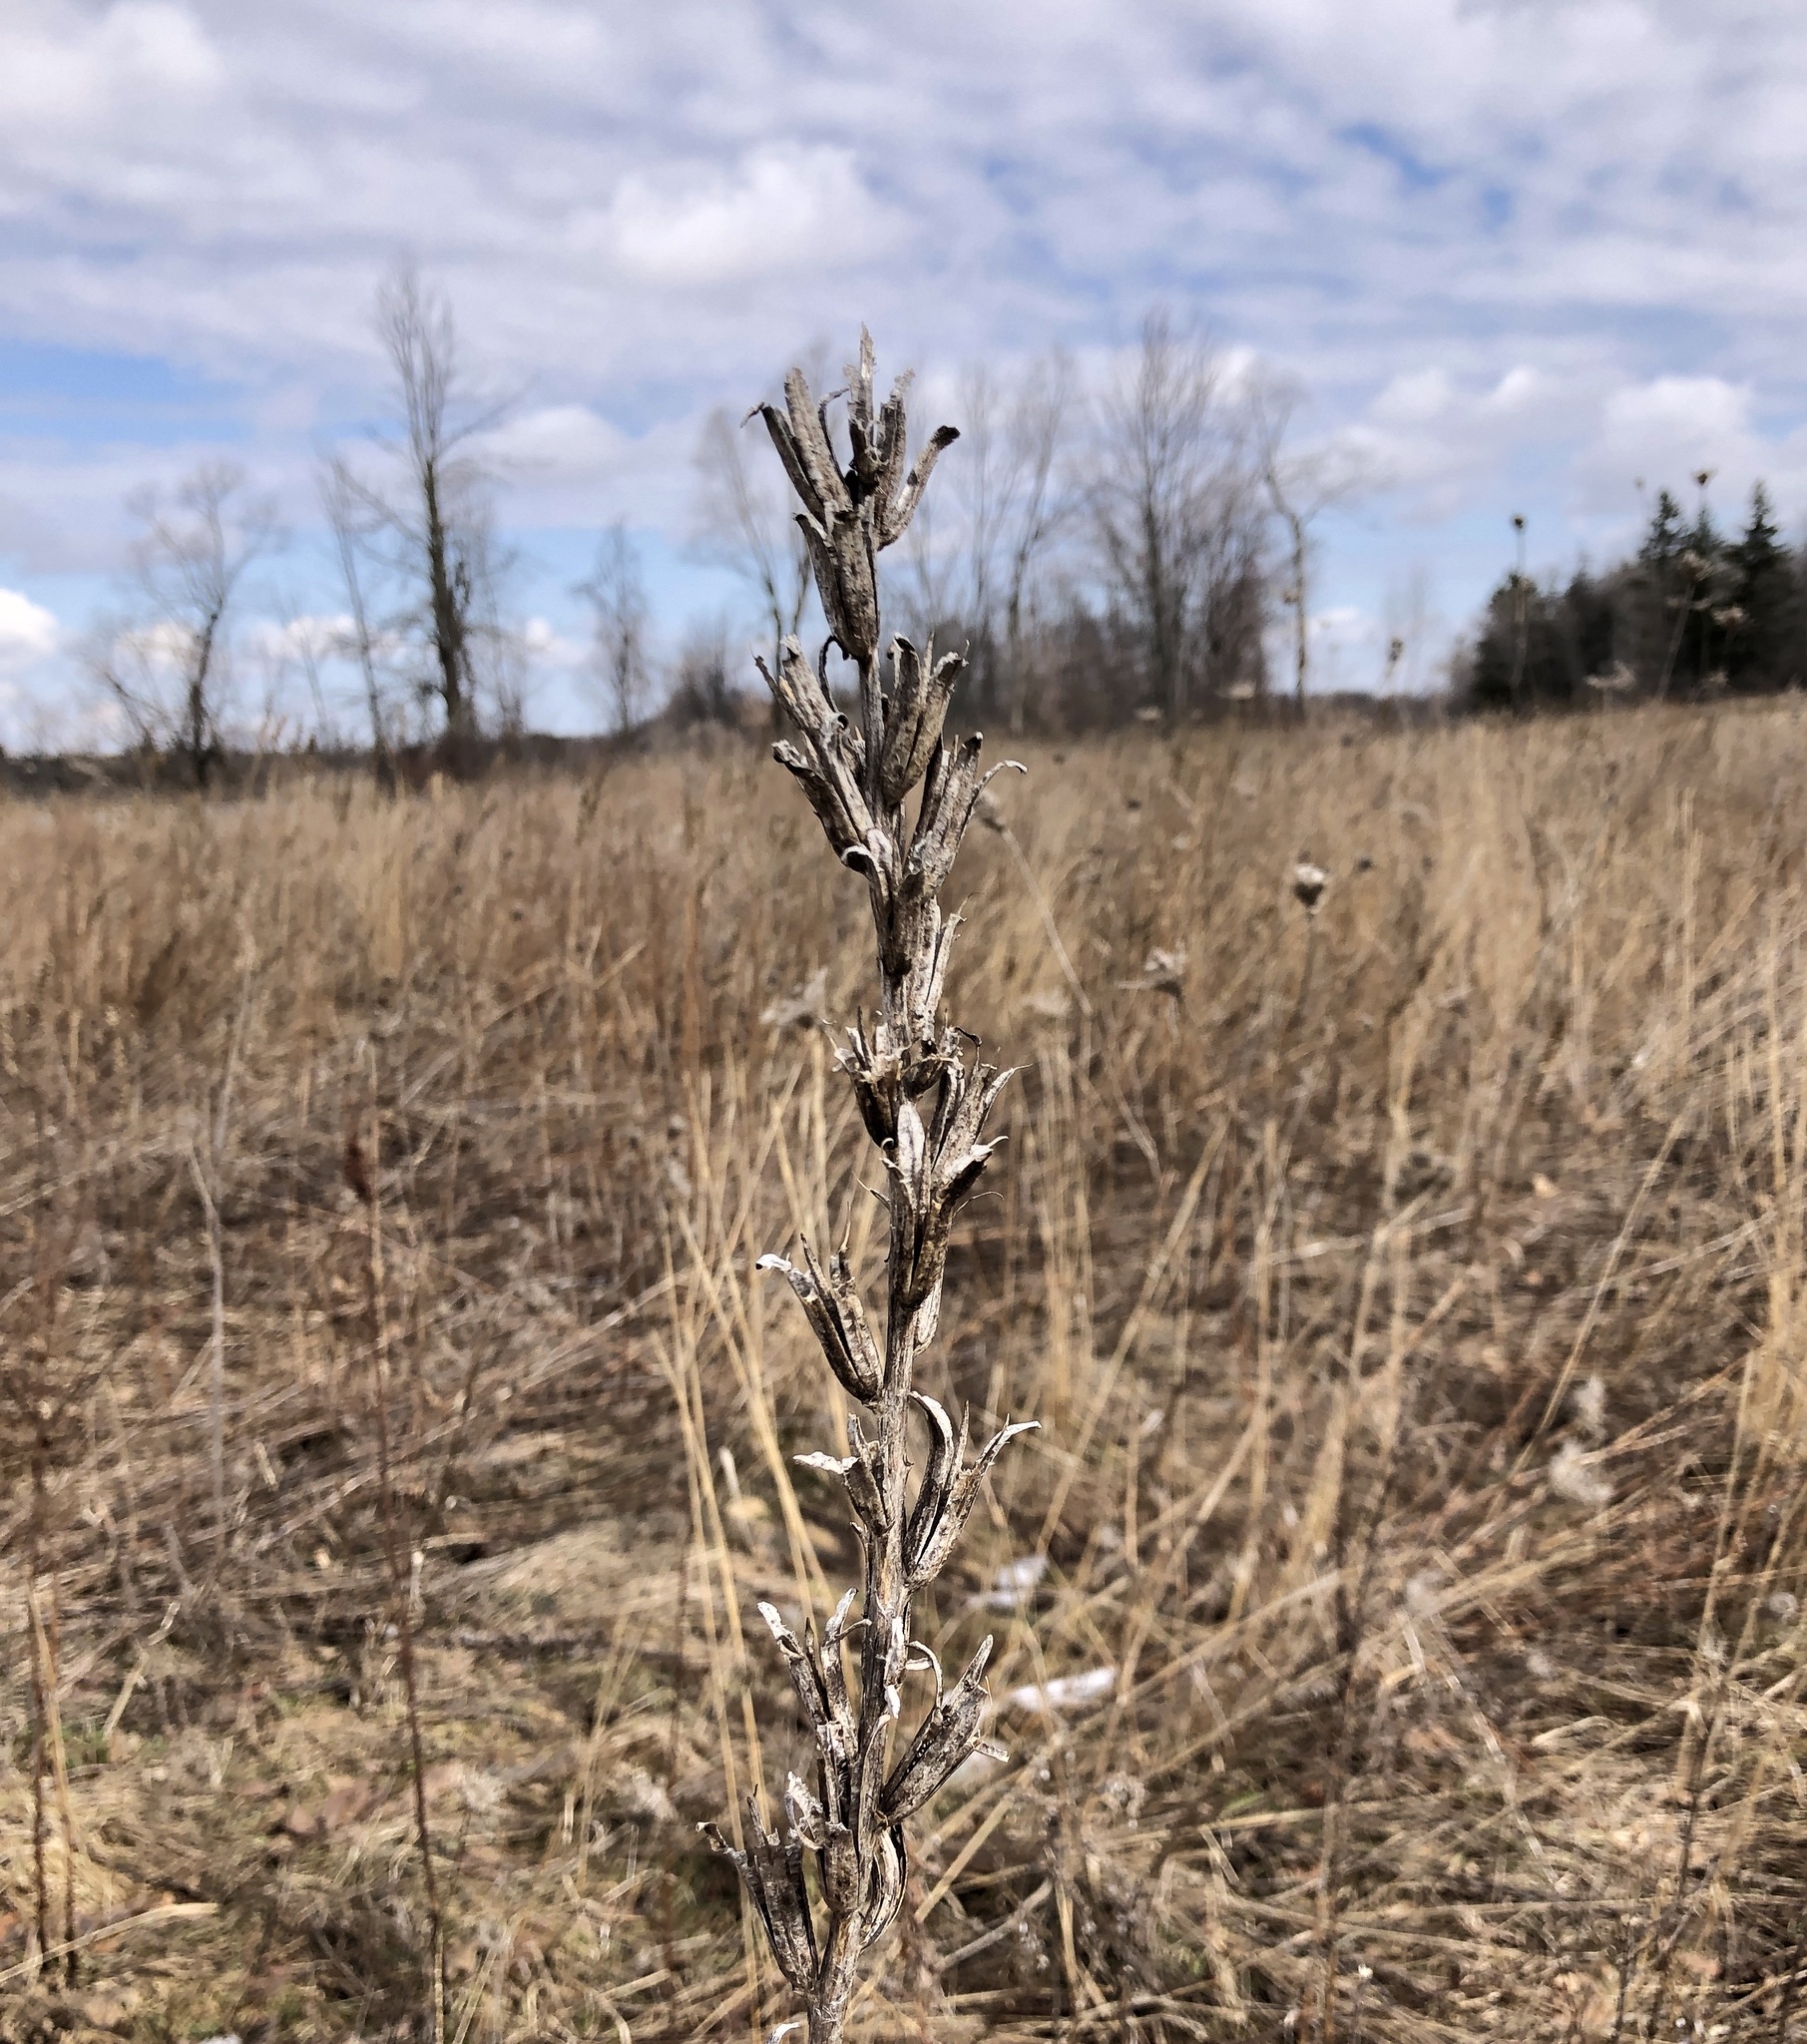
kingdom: Plantae
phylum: Tracheophyta
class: Magnoliopsida
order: Myrtales
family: Onagraceae
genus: Oenothera
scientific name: Oenothera biennis
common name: Common evening-primrose
